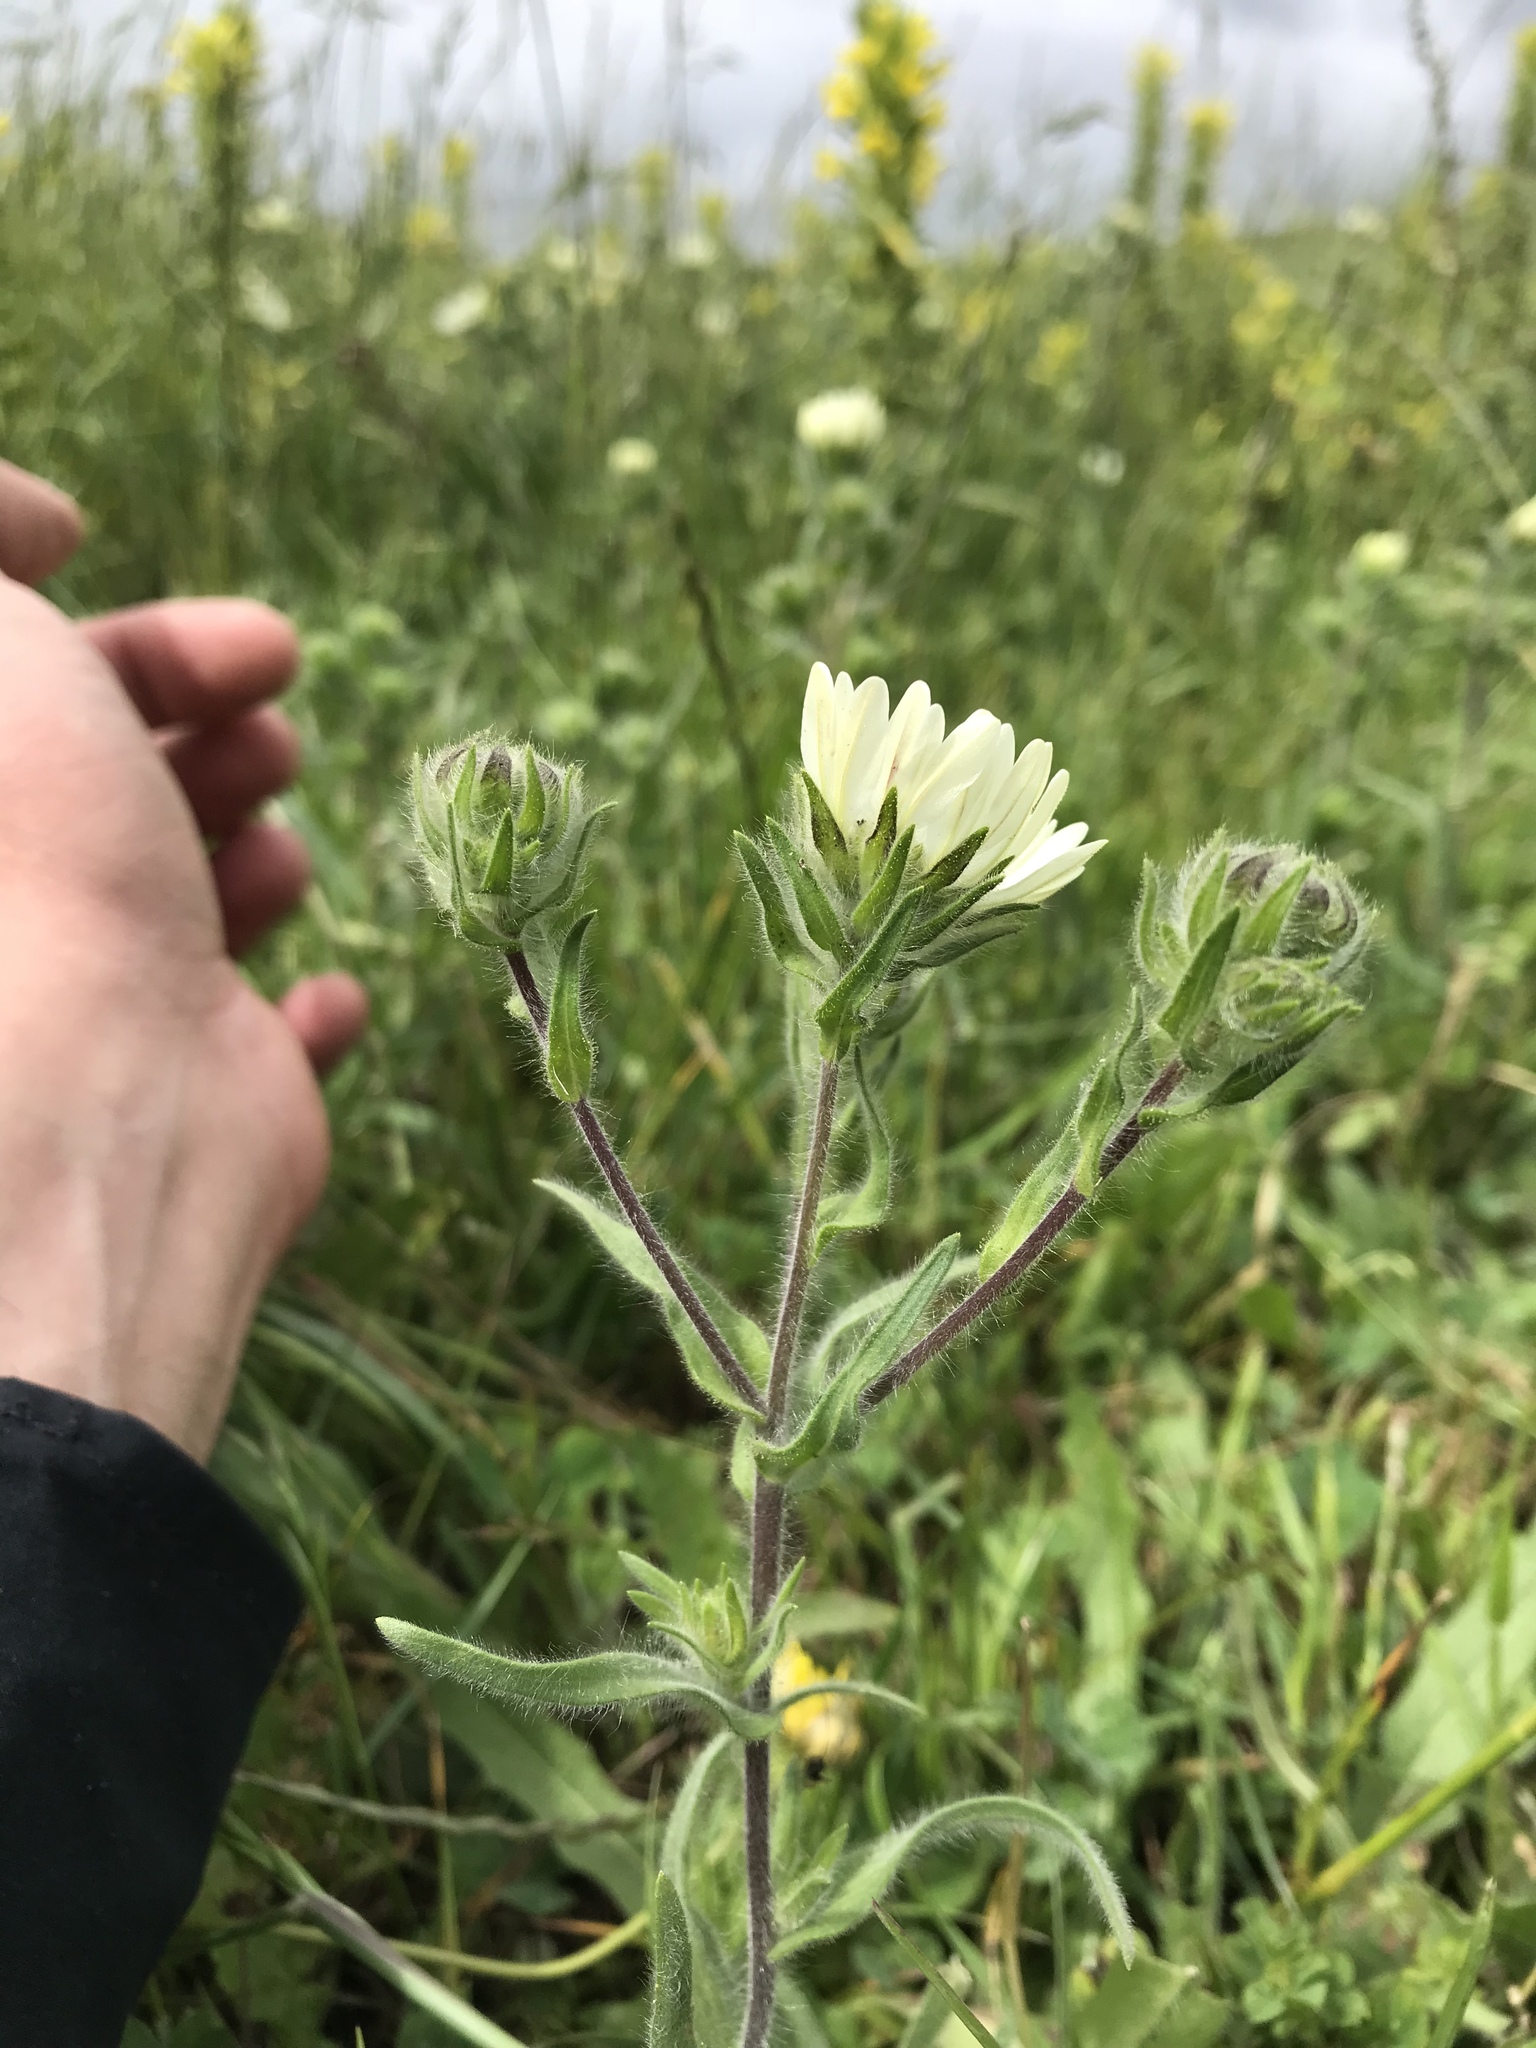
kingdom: Plantae
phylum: Tracheophyta
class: Magnoliopsida
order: Asterales
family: Asteraceae
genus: Hemizonia
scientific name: Hemizonia congesta
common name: Hayfield tarweed
